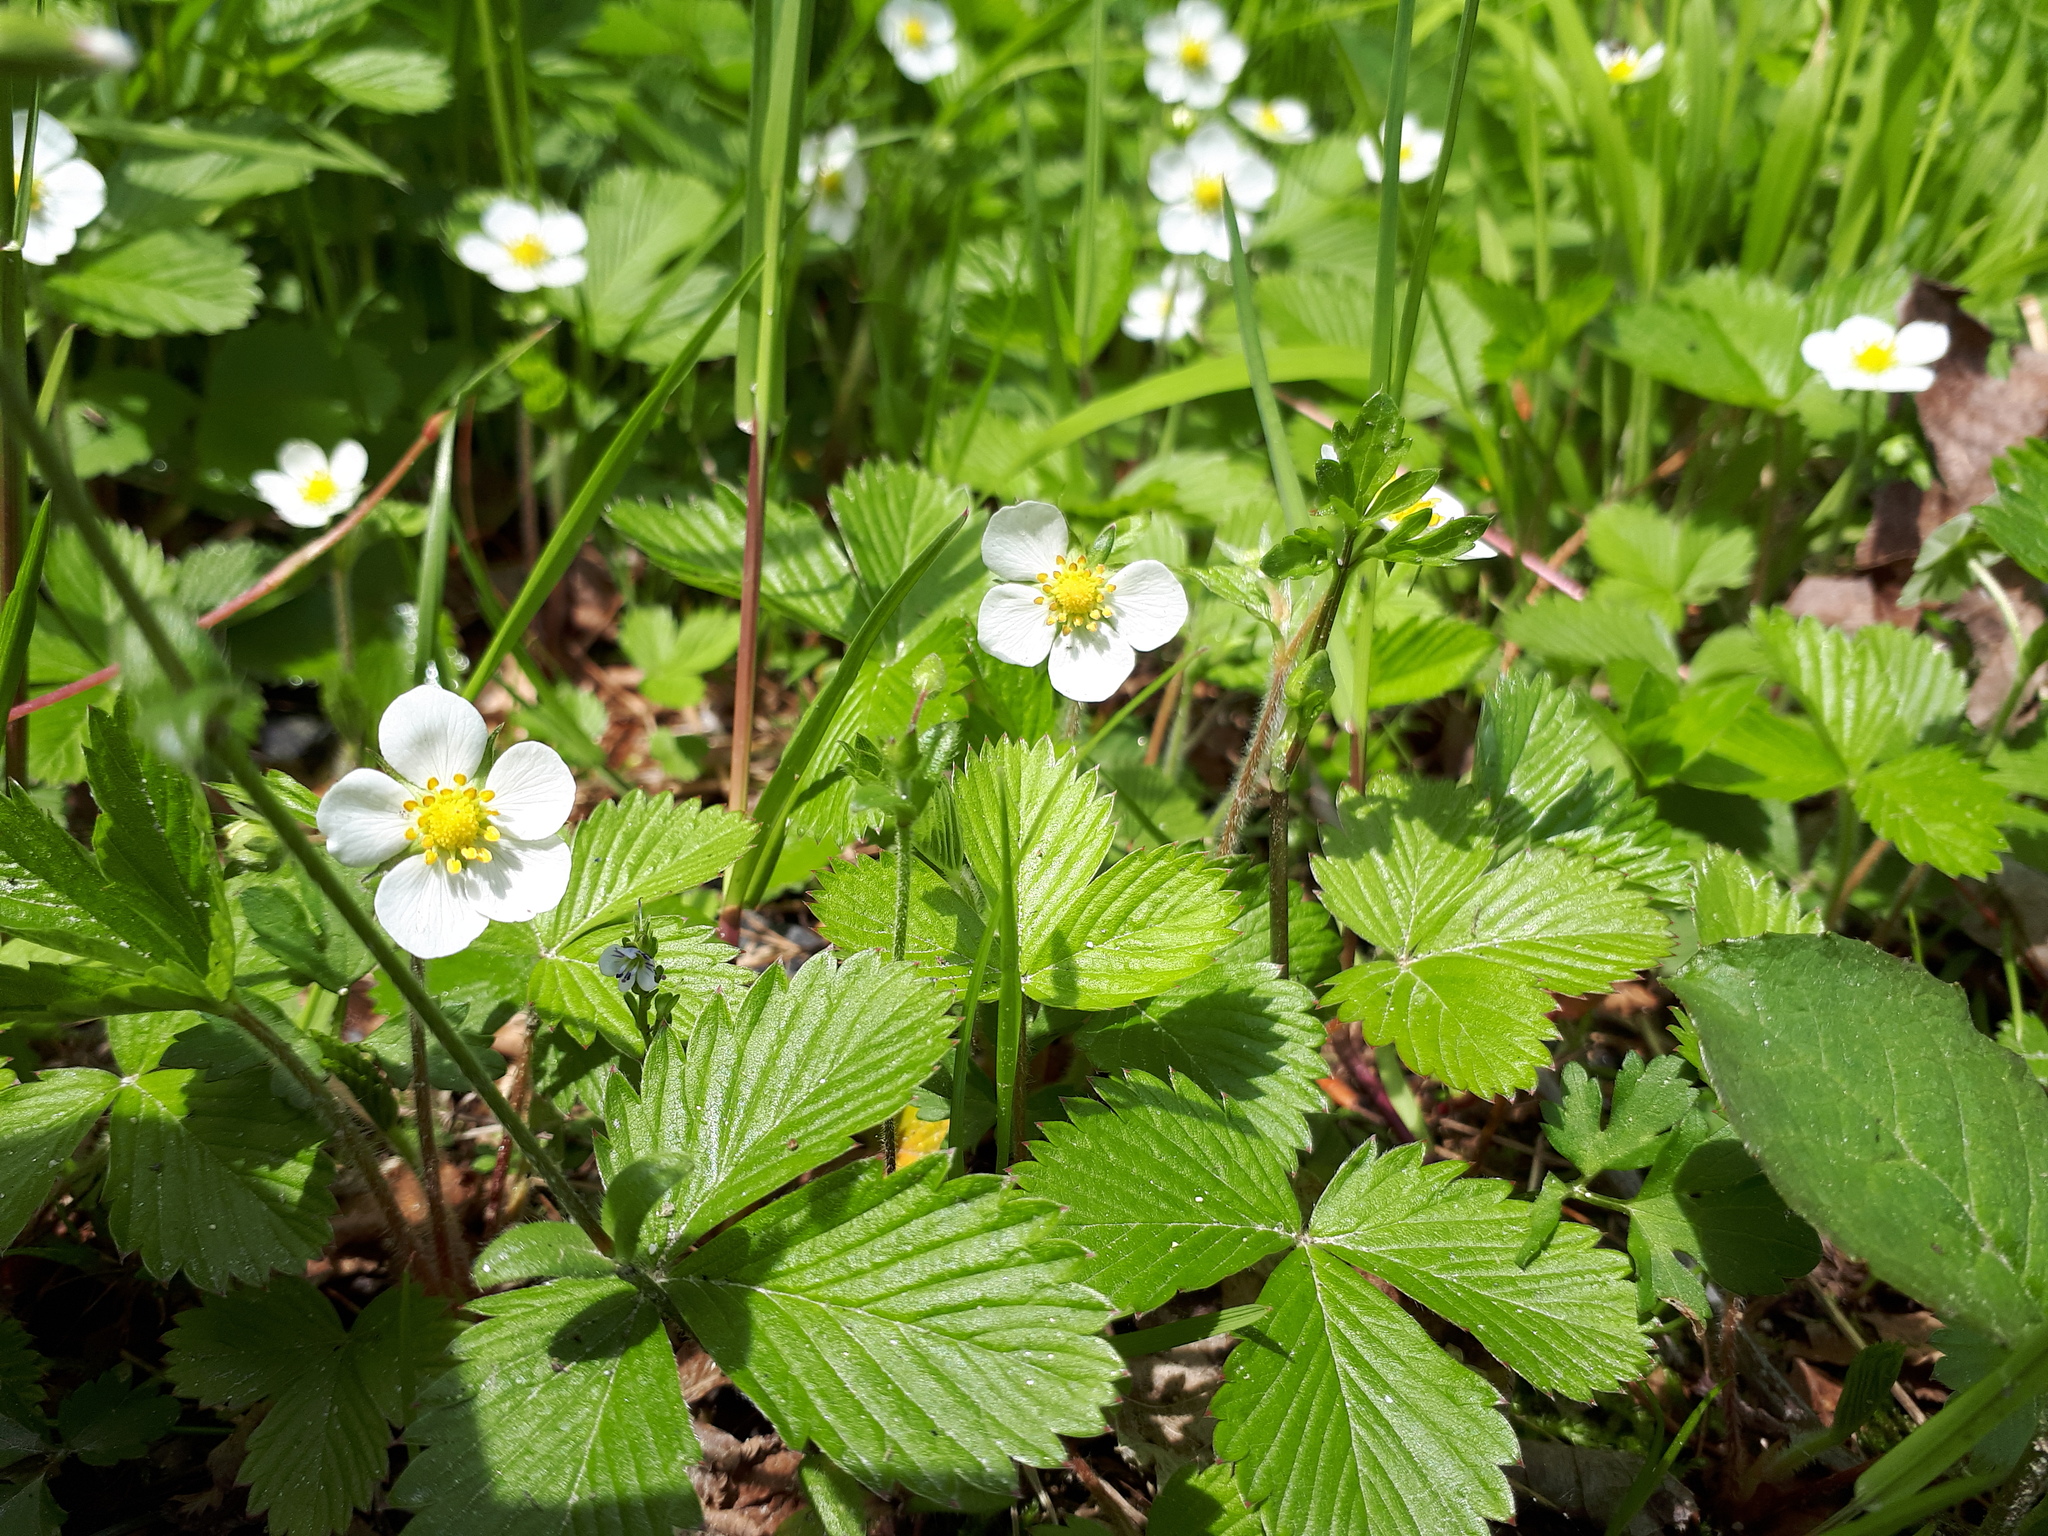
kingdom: Plantae
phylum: Tracheophyta
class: Magnoliopsida
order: Rosales
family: Rosaceae
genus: Fragaria
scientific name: Fragaria vesca
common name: Wild strawberry
